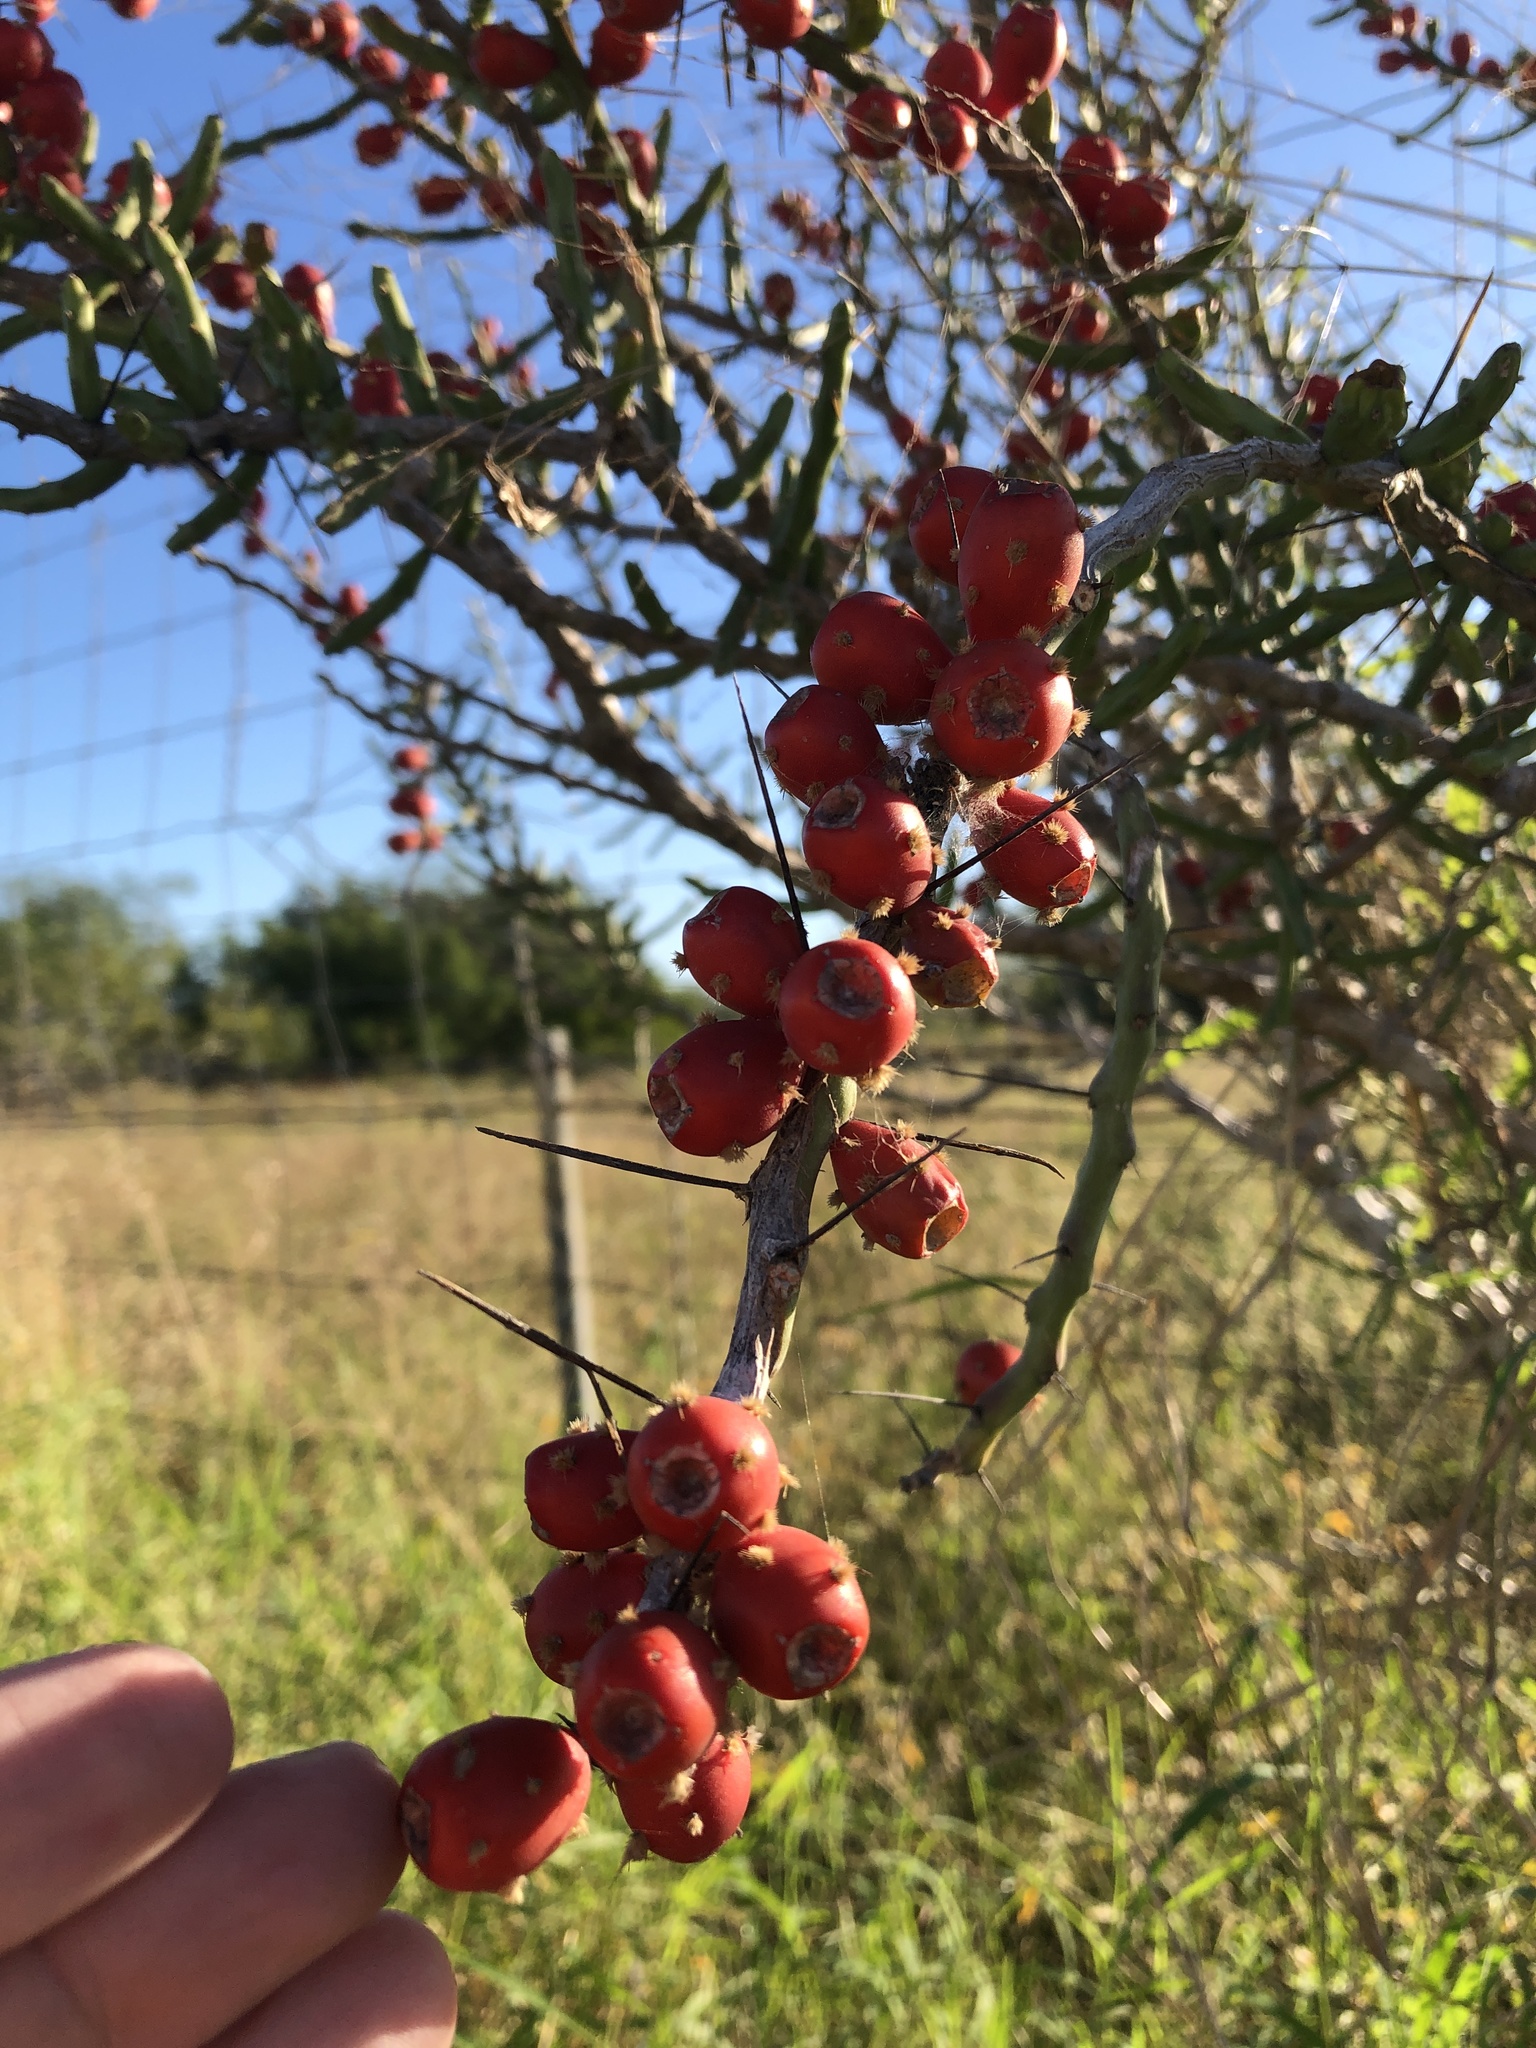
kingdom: Plantae
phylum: Tracheophyta
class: Magnoliopsida
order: Caryophyllales
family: Cactaceae
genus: Cylindropuntia
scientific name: Cylindropuntia leptocaulis
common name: Christmas cactus
